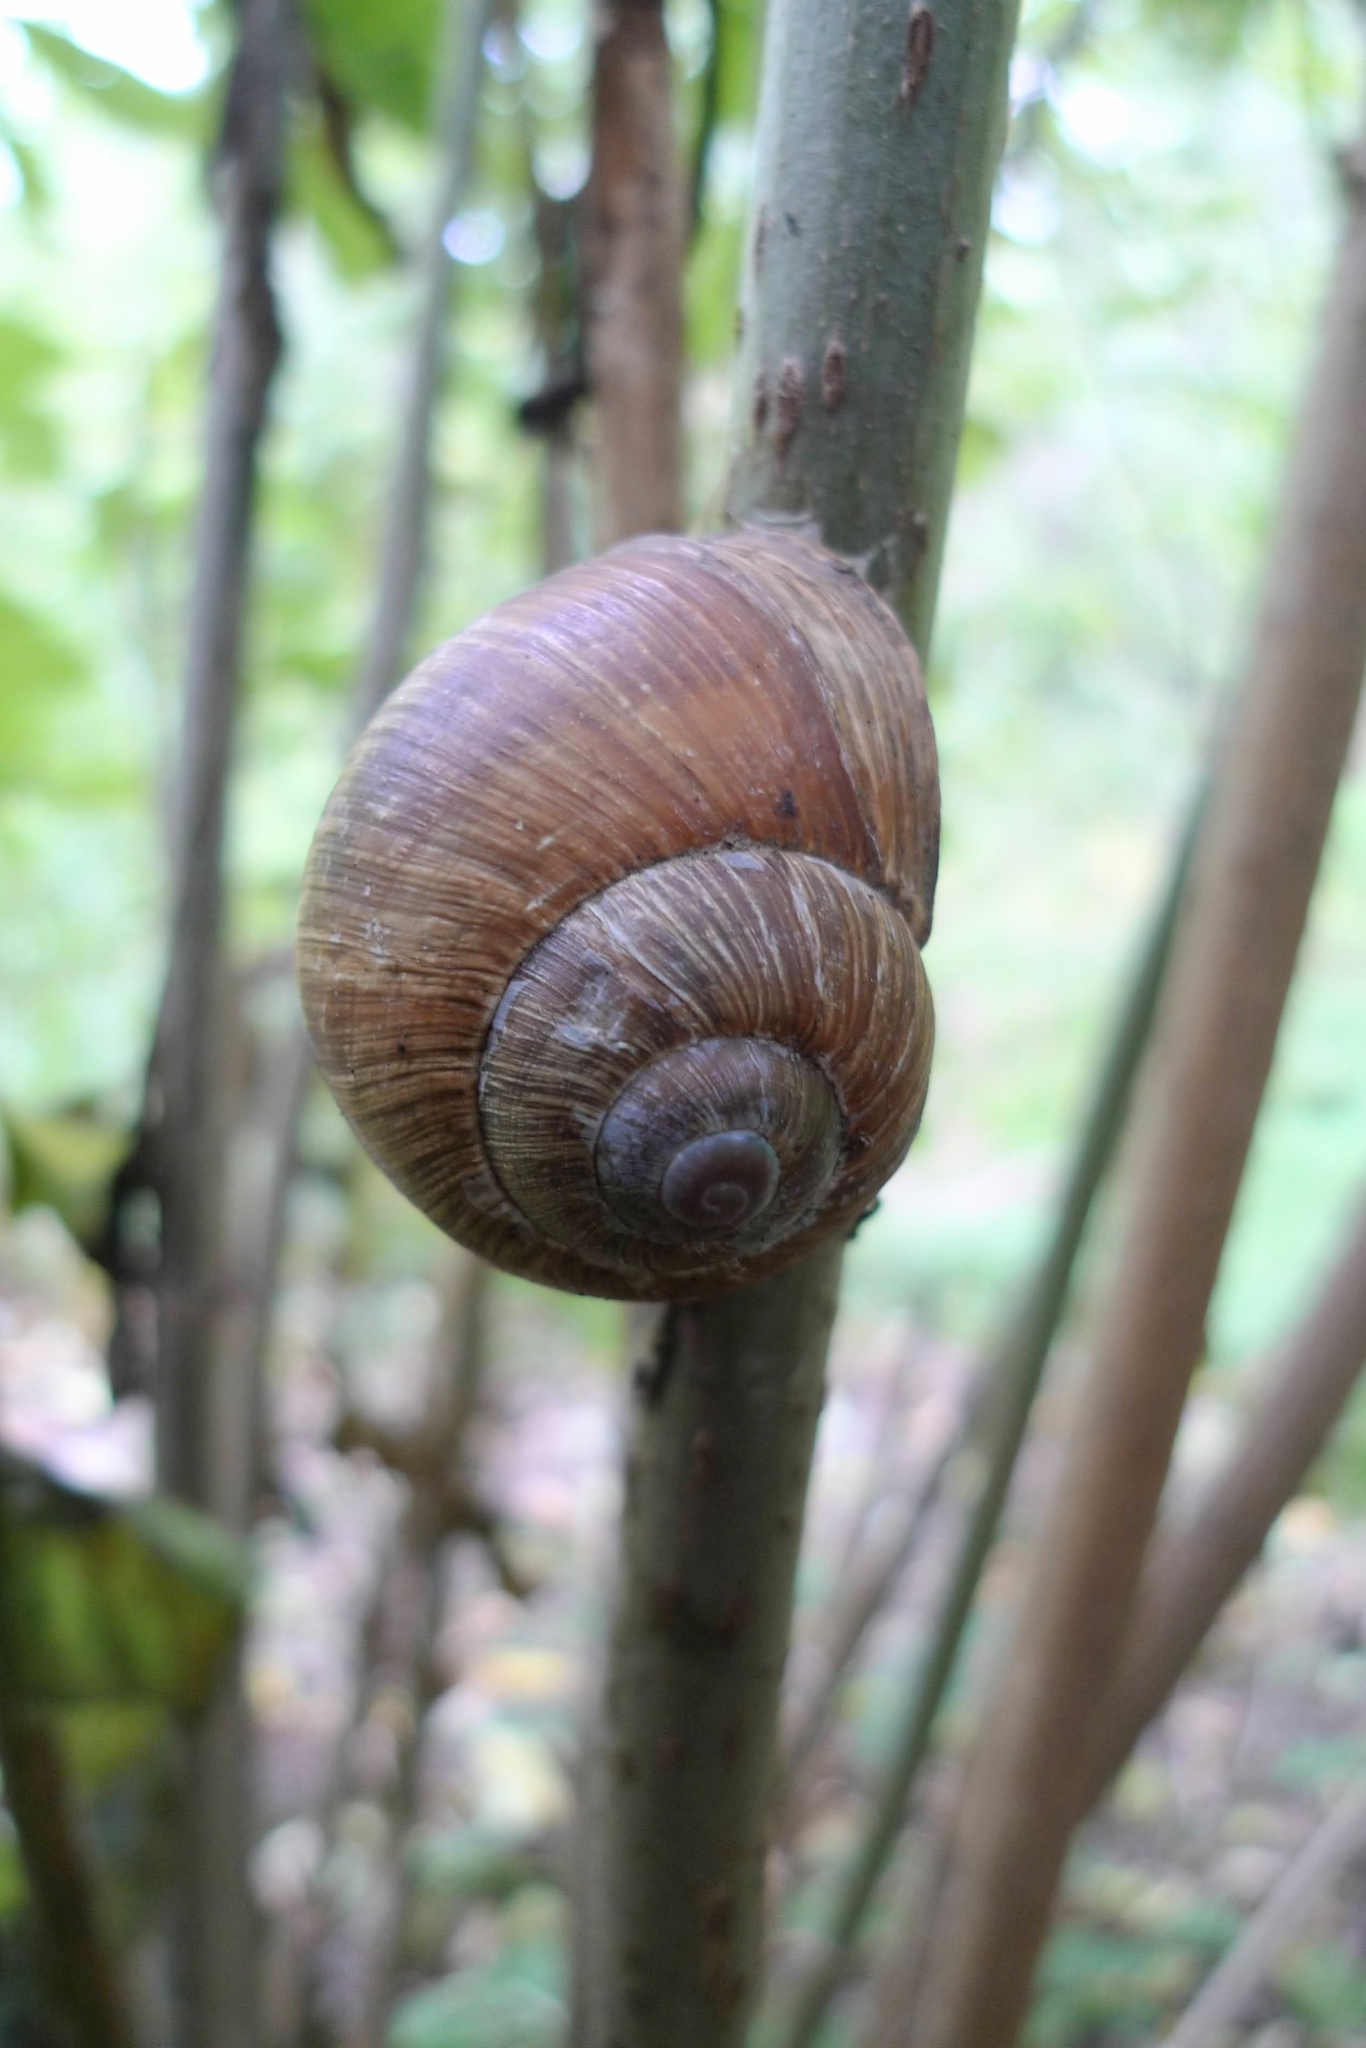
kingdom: Animalia
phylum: Mollusca
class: Gastropoda
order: Stylommatophora
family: Helicidae
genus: Helix
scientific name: Helix pomatia
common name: Roman snail
